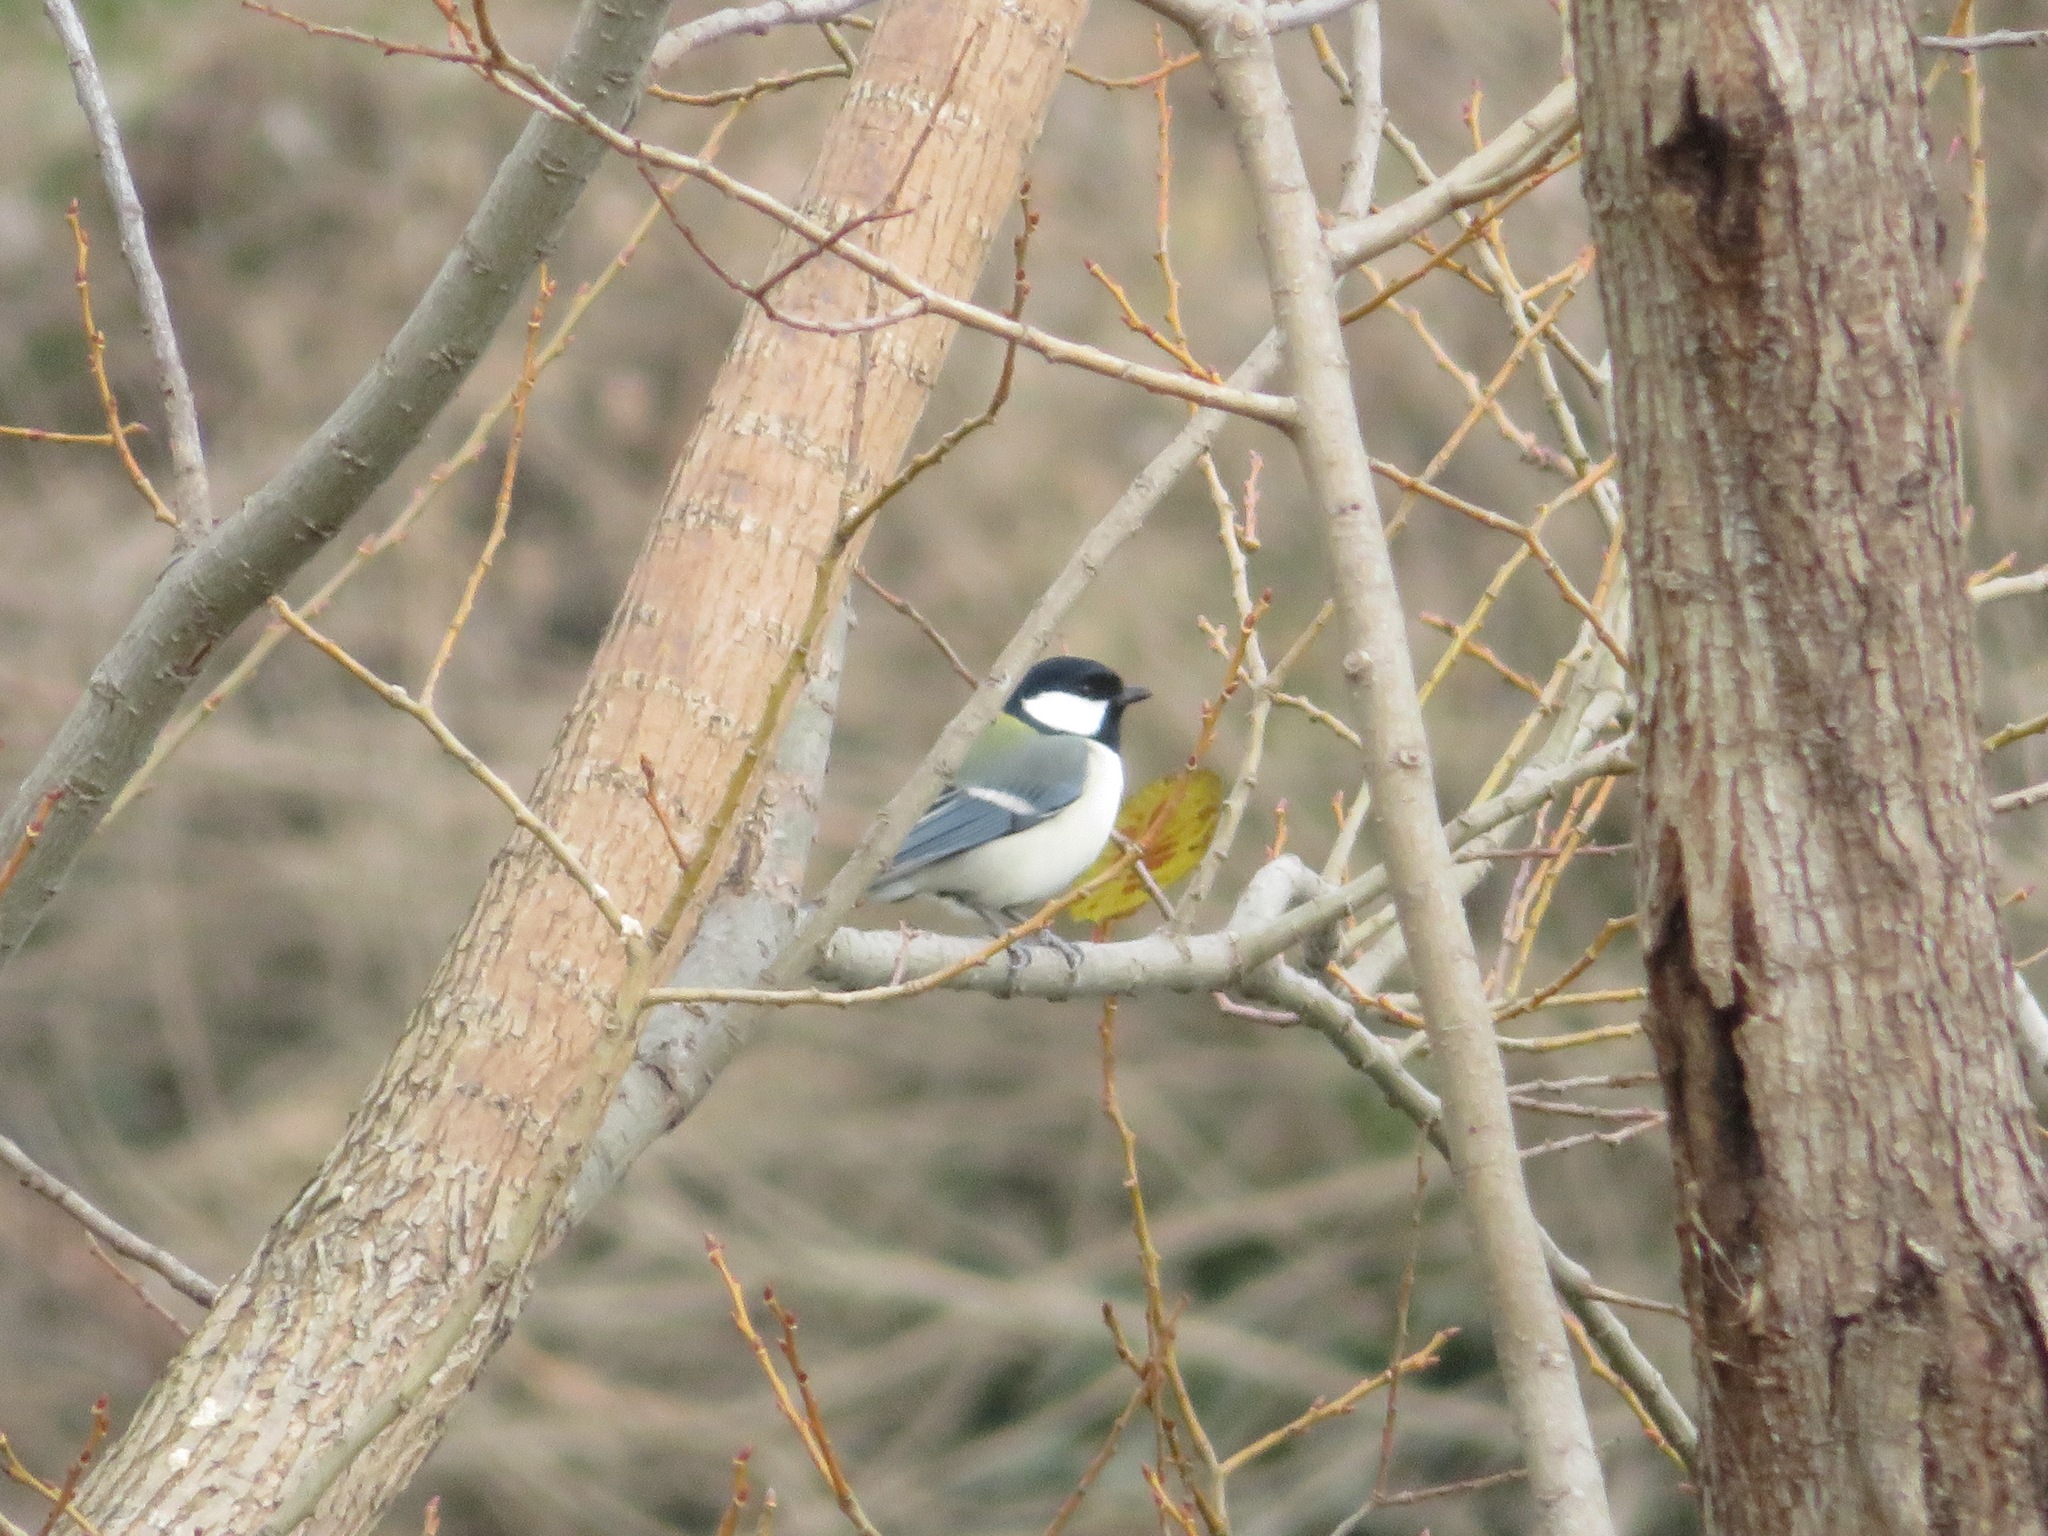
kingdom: Animalia
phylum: Chordata
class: Aves
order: Passeriformes
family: Paridae
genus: Parus
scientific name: Parus minor
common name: Japanese tit
